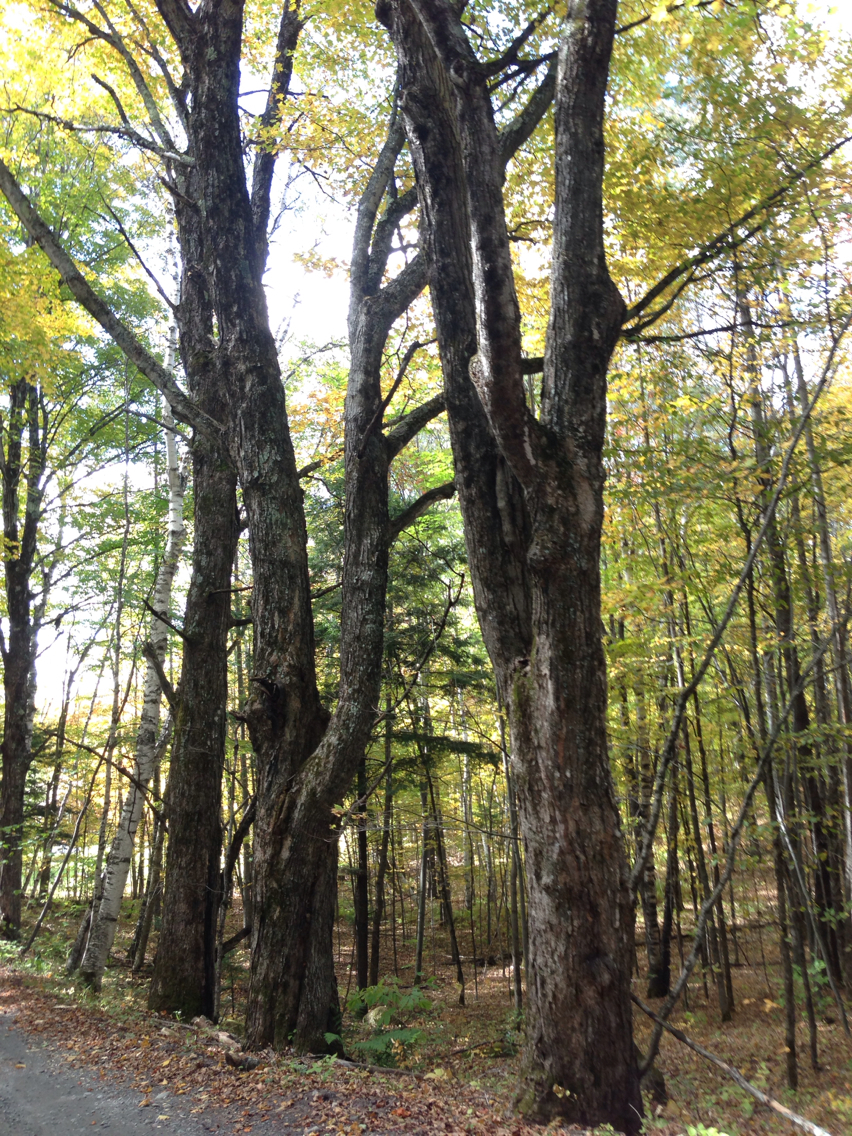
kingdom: Plantae
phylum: Tracheophyta
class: Magnoliopsida
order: Sapindales
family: Sapindaceae
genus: Acer
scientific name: Acer saccharum
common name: Sugar maple
